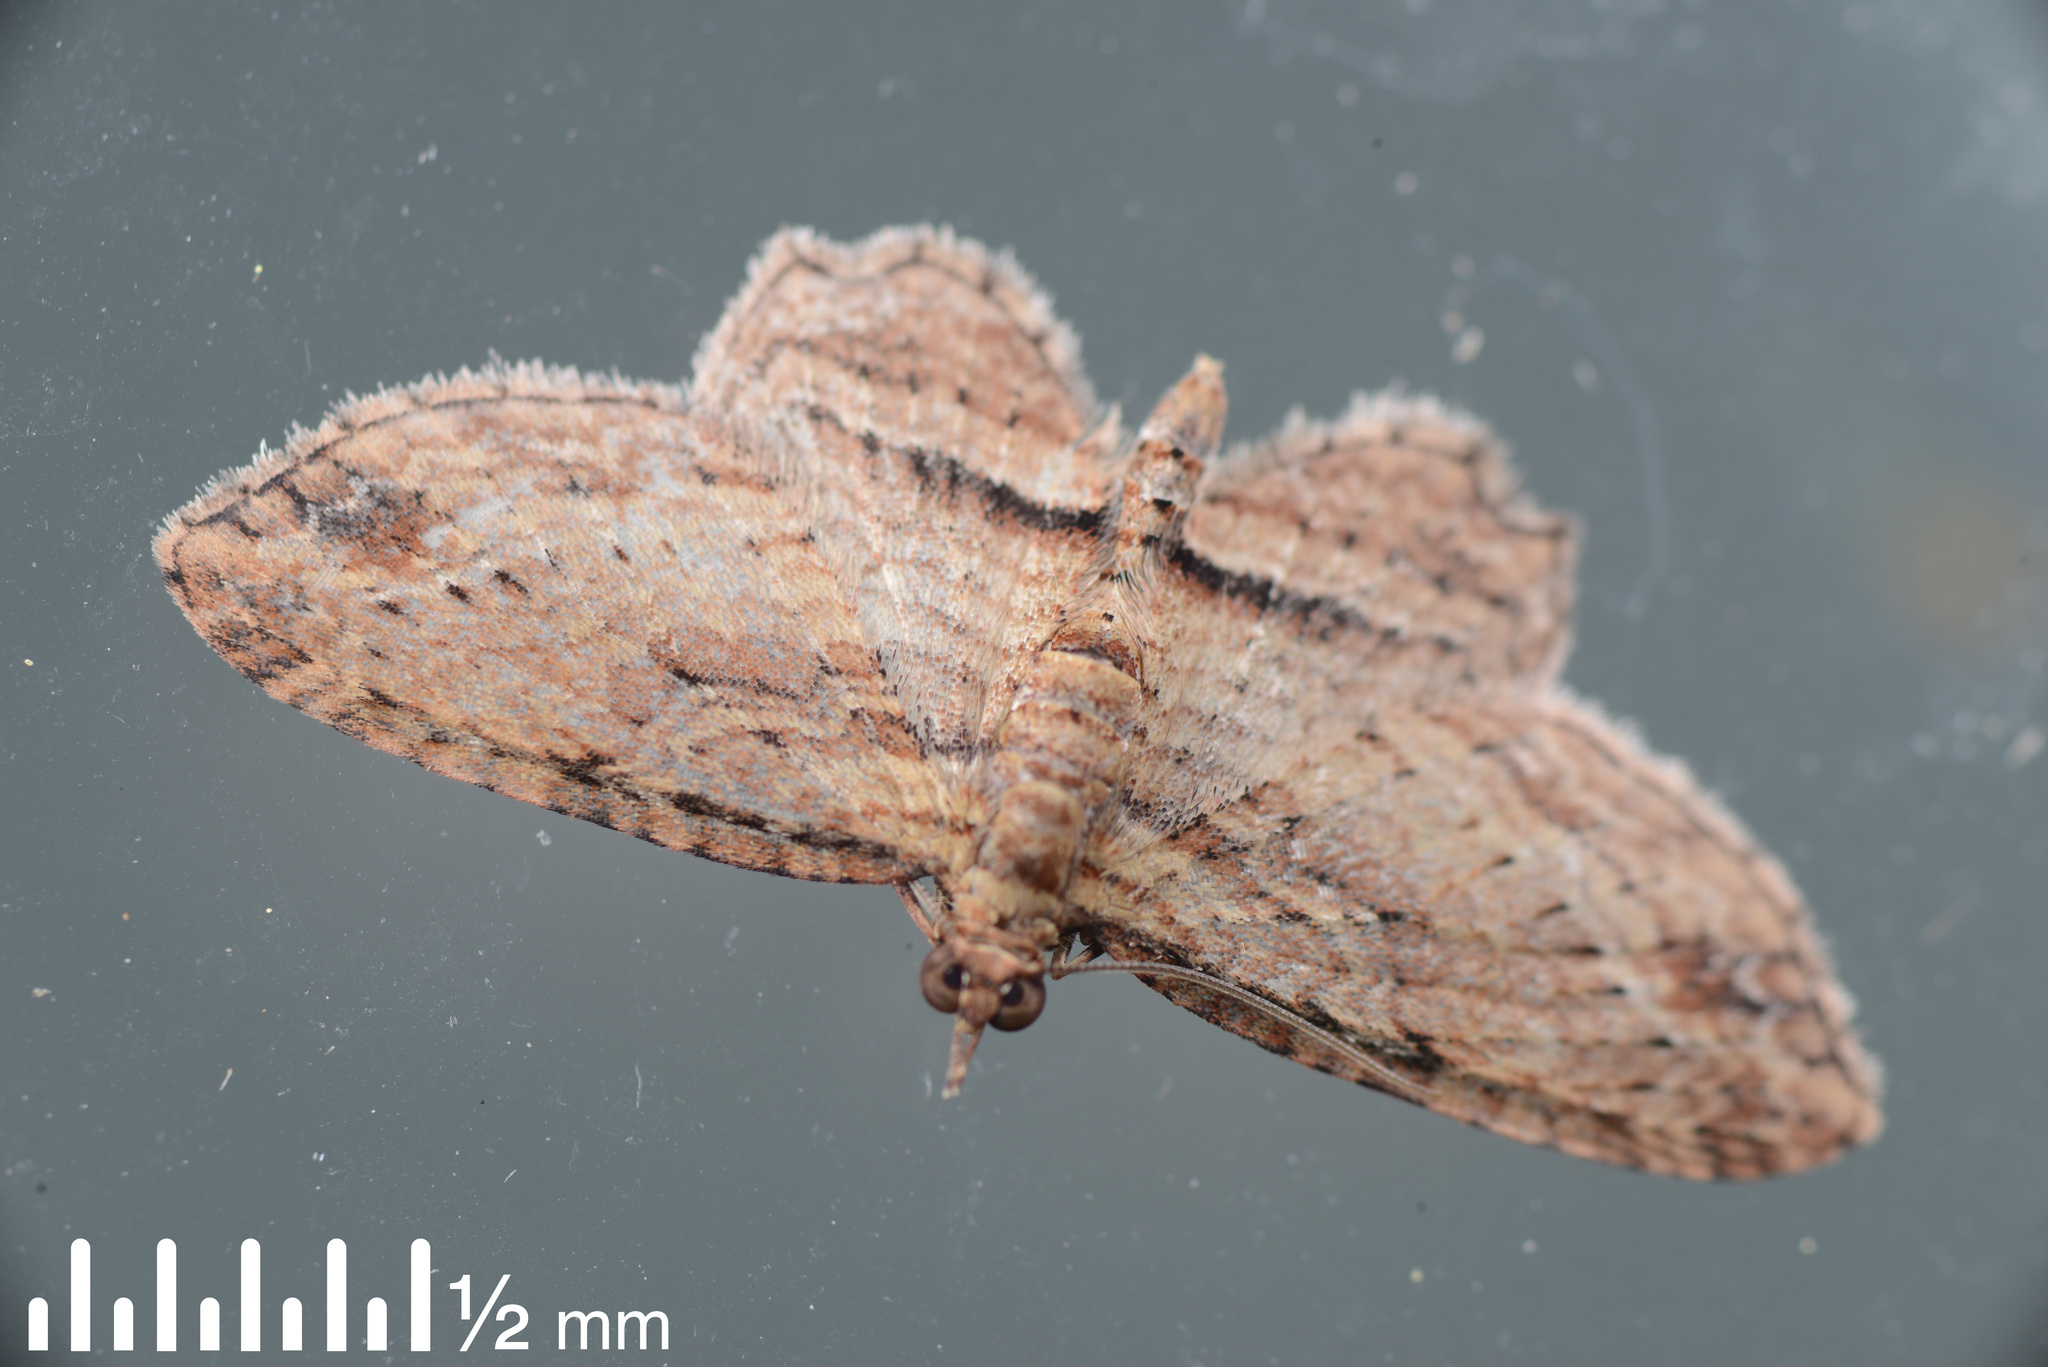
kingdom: Animalia
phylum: Arthropoda
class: Insecta
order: Lepidoptera
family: Geometridae
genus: Chloroclystis
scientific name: Chloroclystis filata
